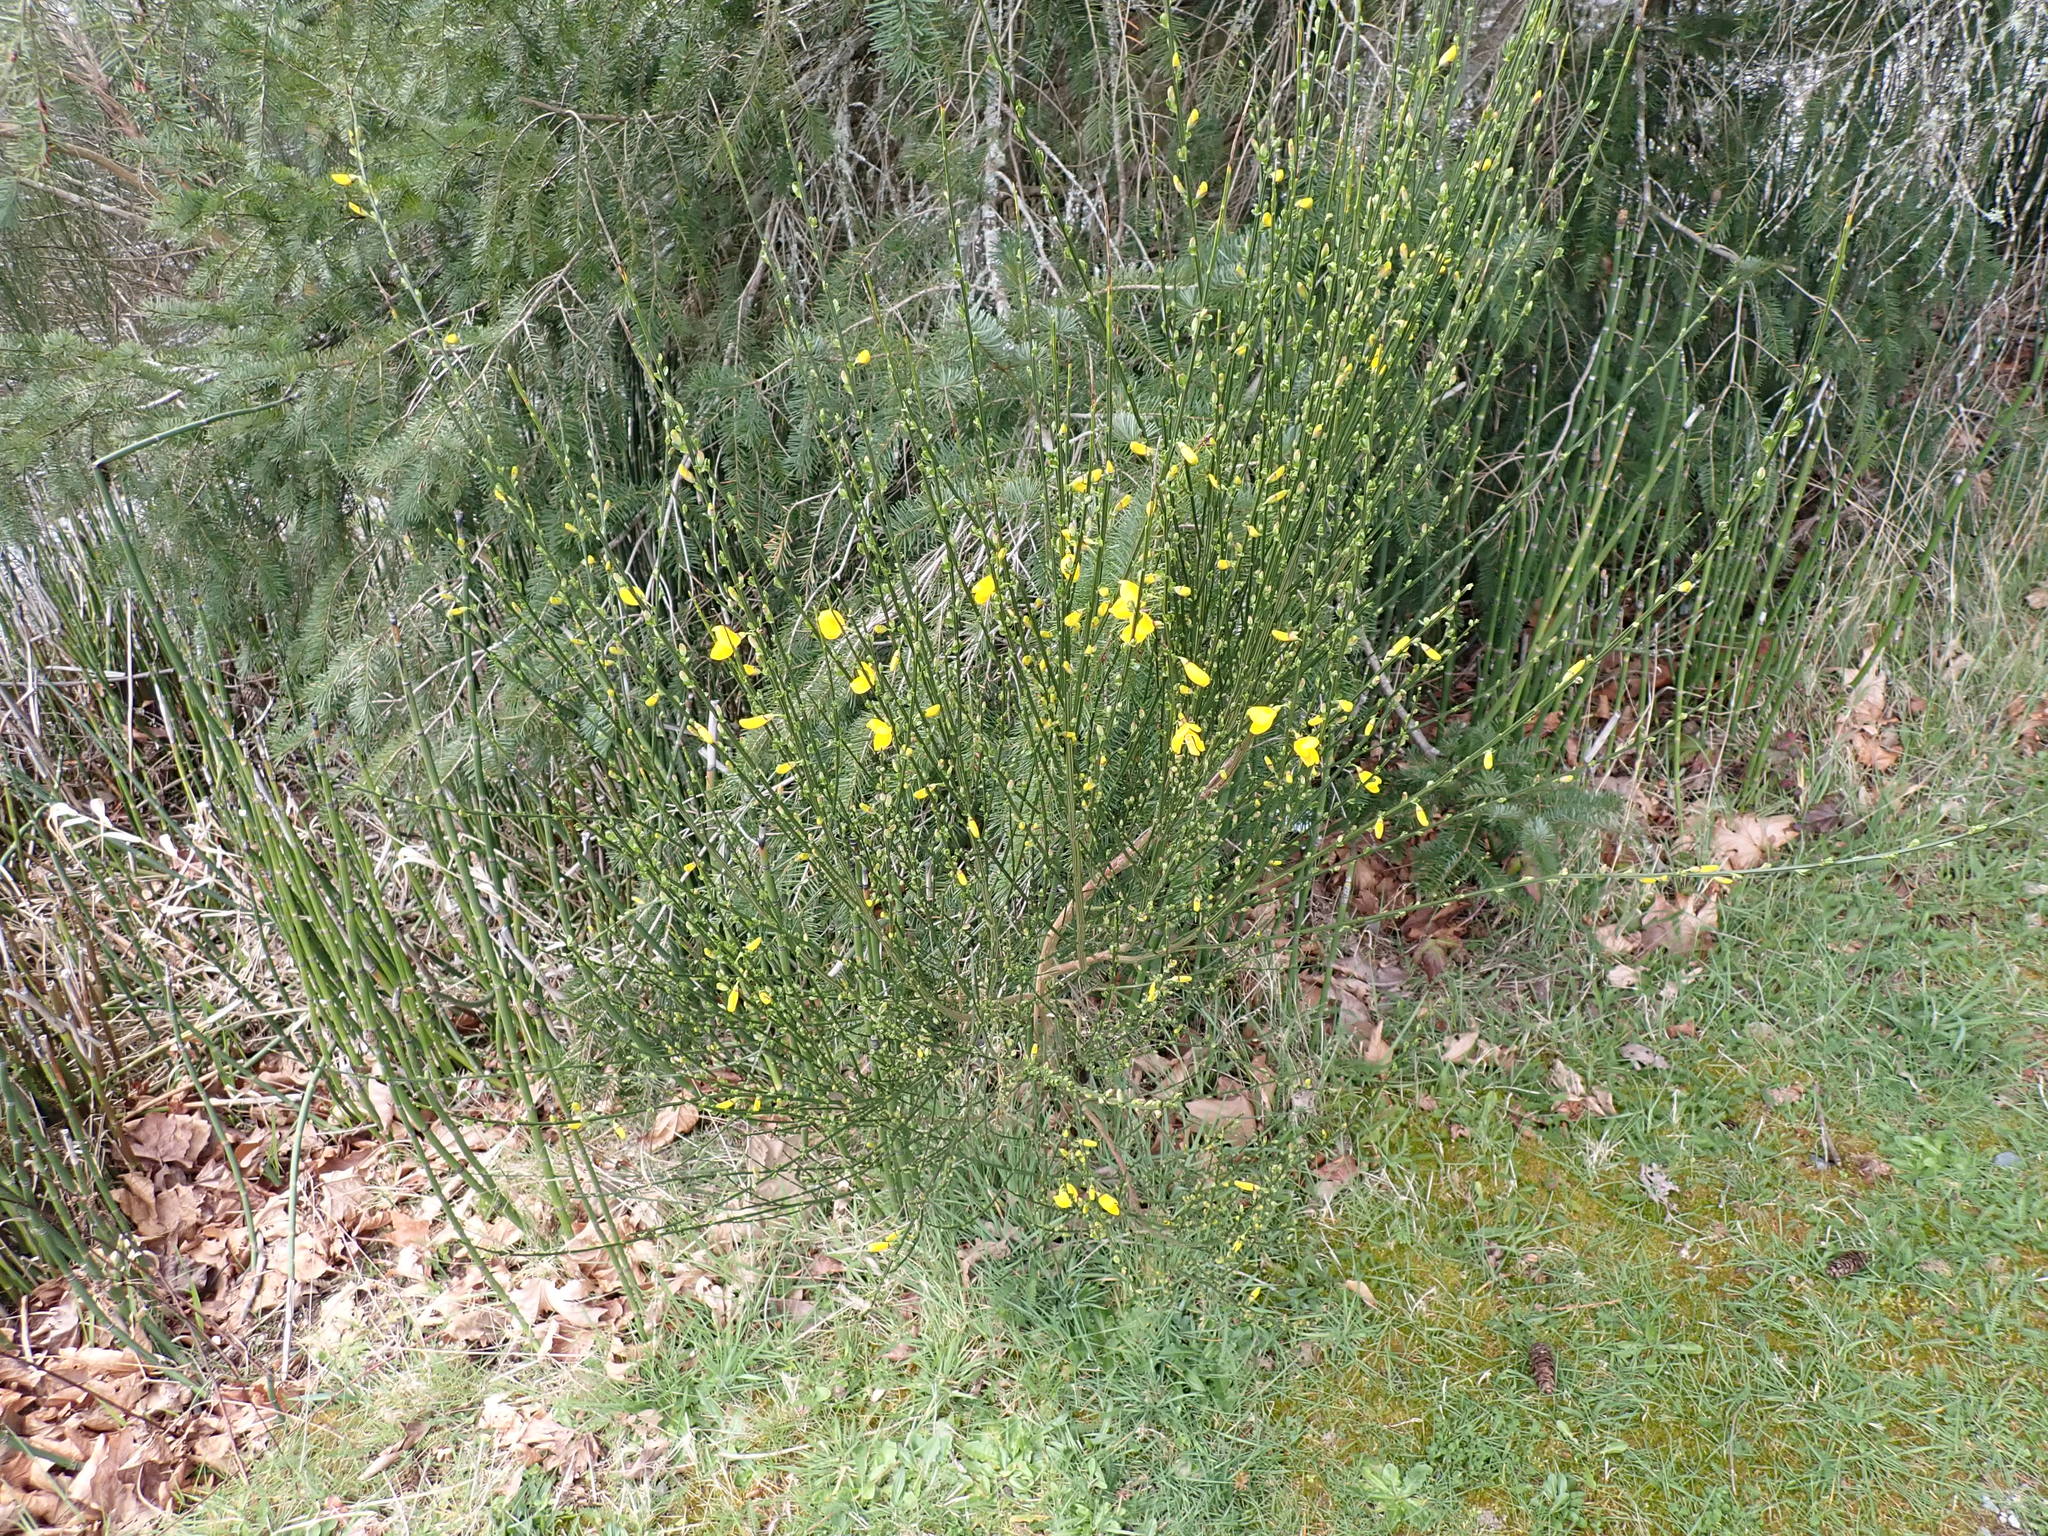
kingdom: Plantae
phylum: Tracheophyta
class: Magnoliopsida
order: Fabales
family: Fabaceae
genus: Cytisus
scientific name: Cytisus scoparius
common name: Scotch broom
